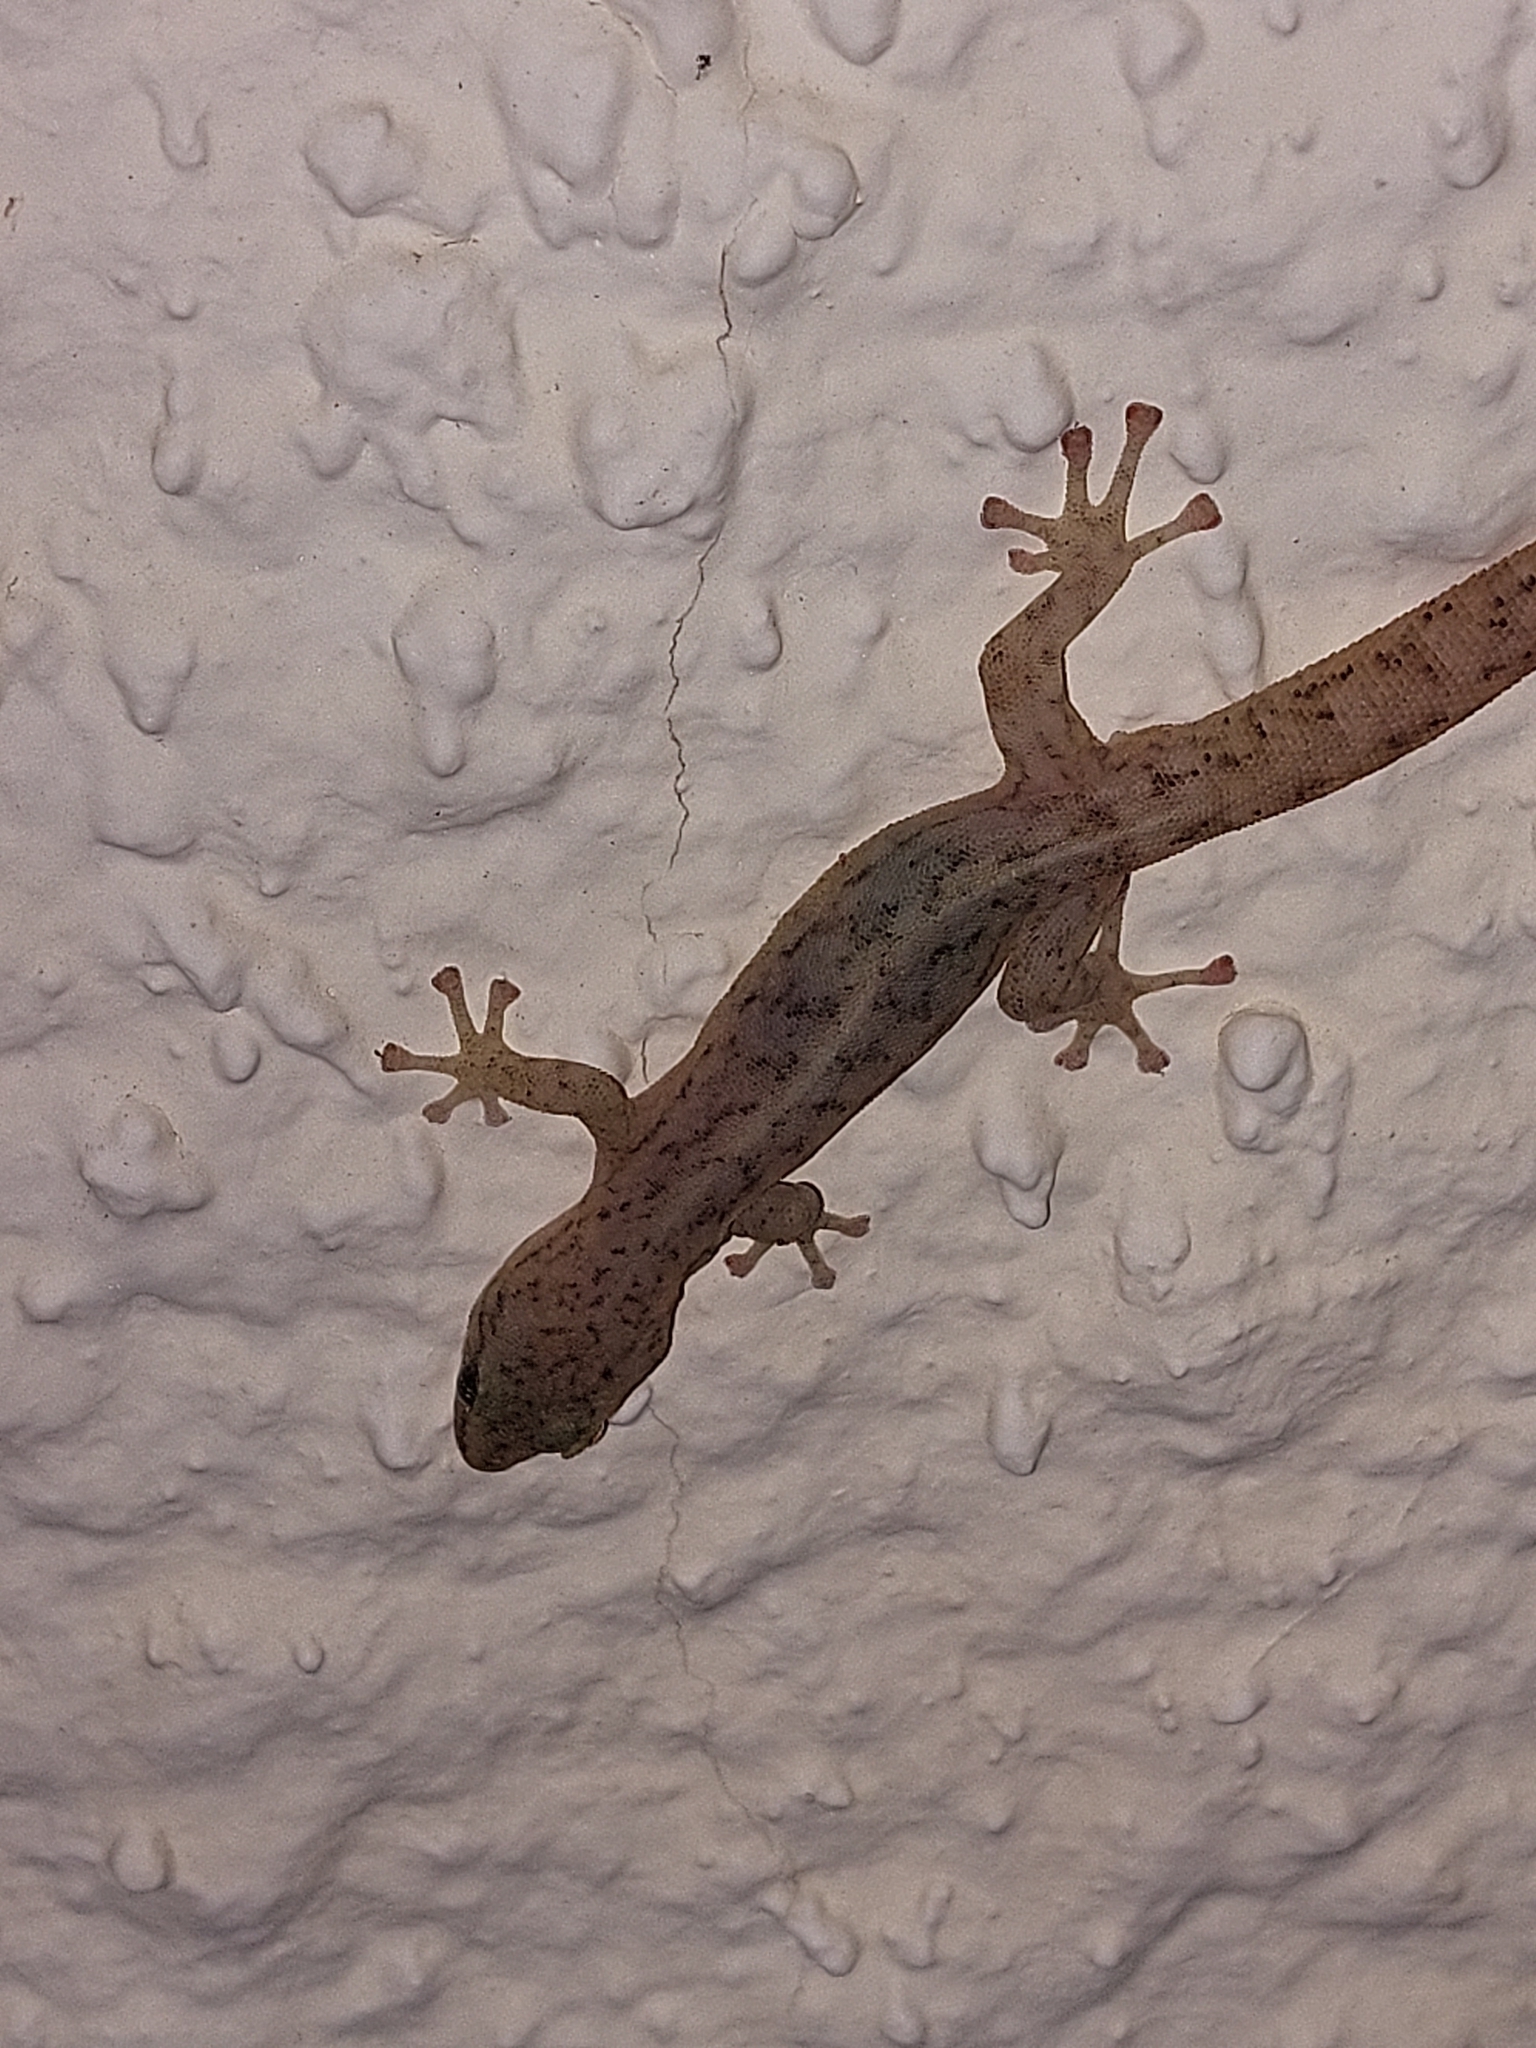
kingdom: Animalia
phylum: Chordata
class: Squamata
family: Gekkonidae
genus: Afrogecko
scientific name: Afrogecko porphyreus
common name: Marbled leaf-toed gecko
